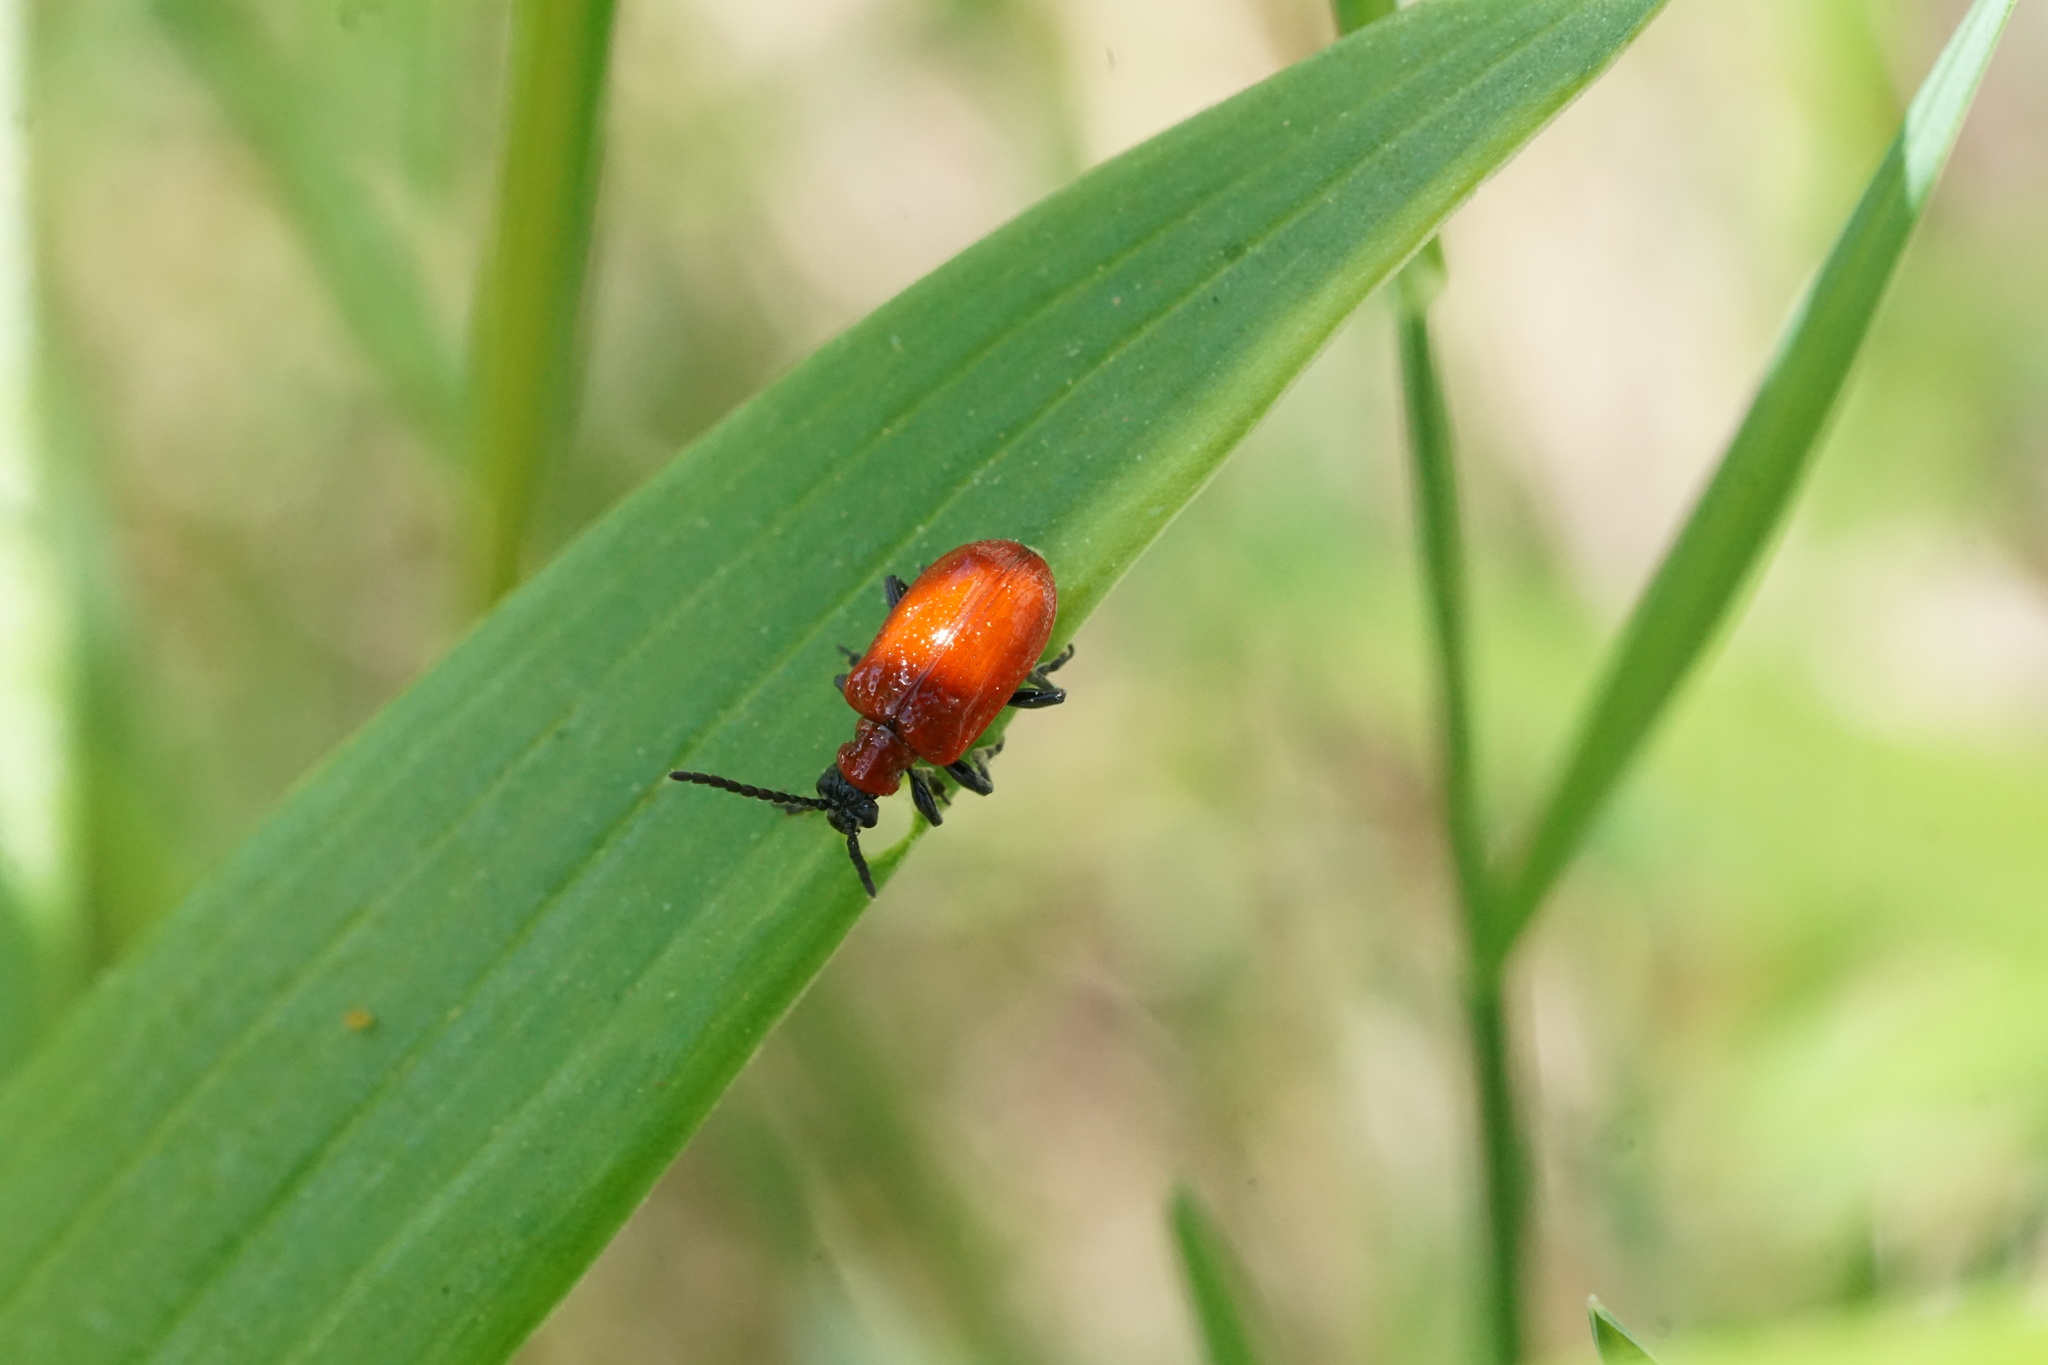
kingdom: Animalia
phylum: Arthropoda
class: Insecta
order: Coleoptera
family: Chrysomelidae
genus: Lilioceris
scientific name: Lilioceris lilii
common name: Lily beetle
